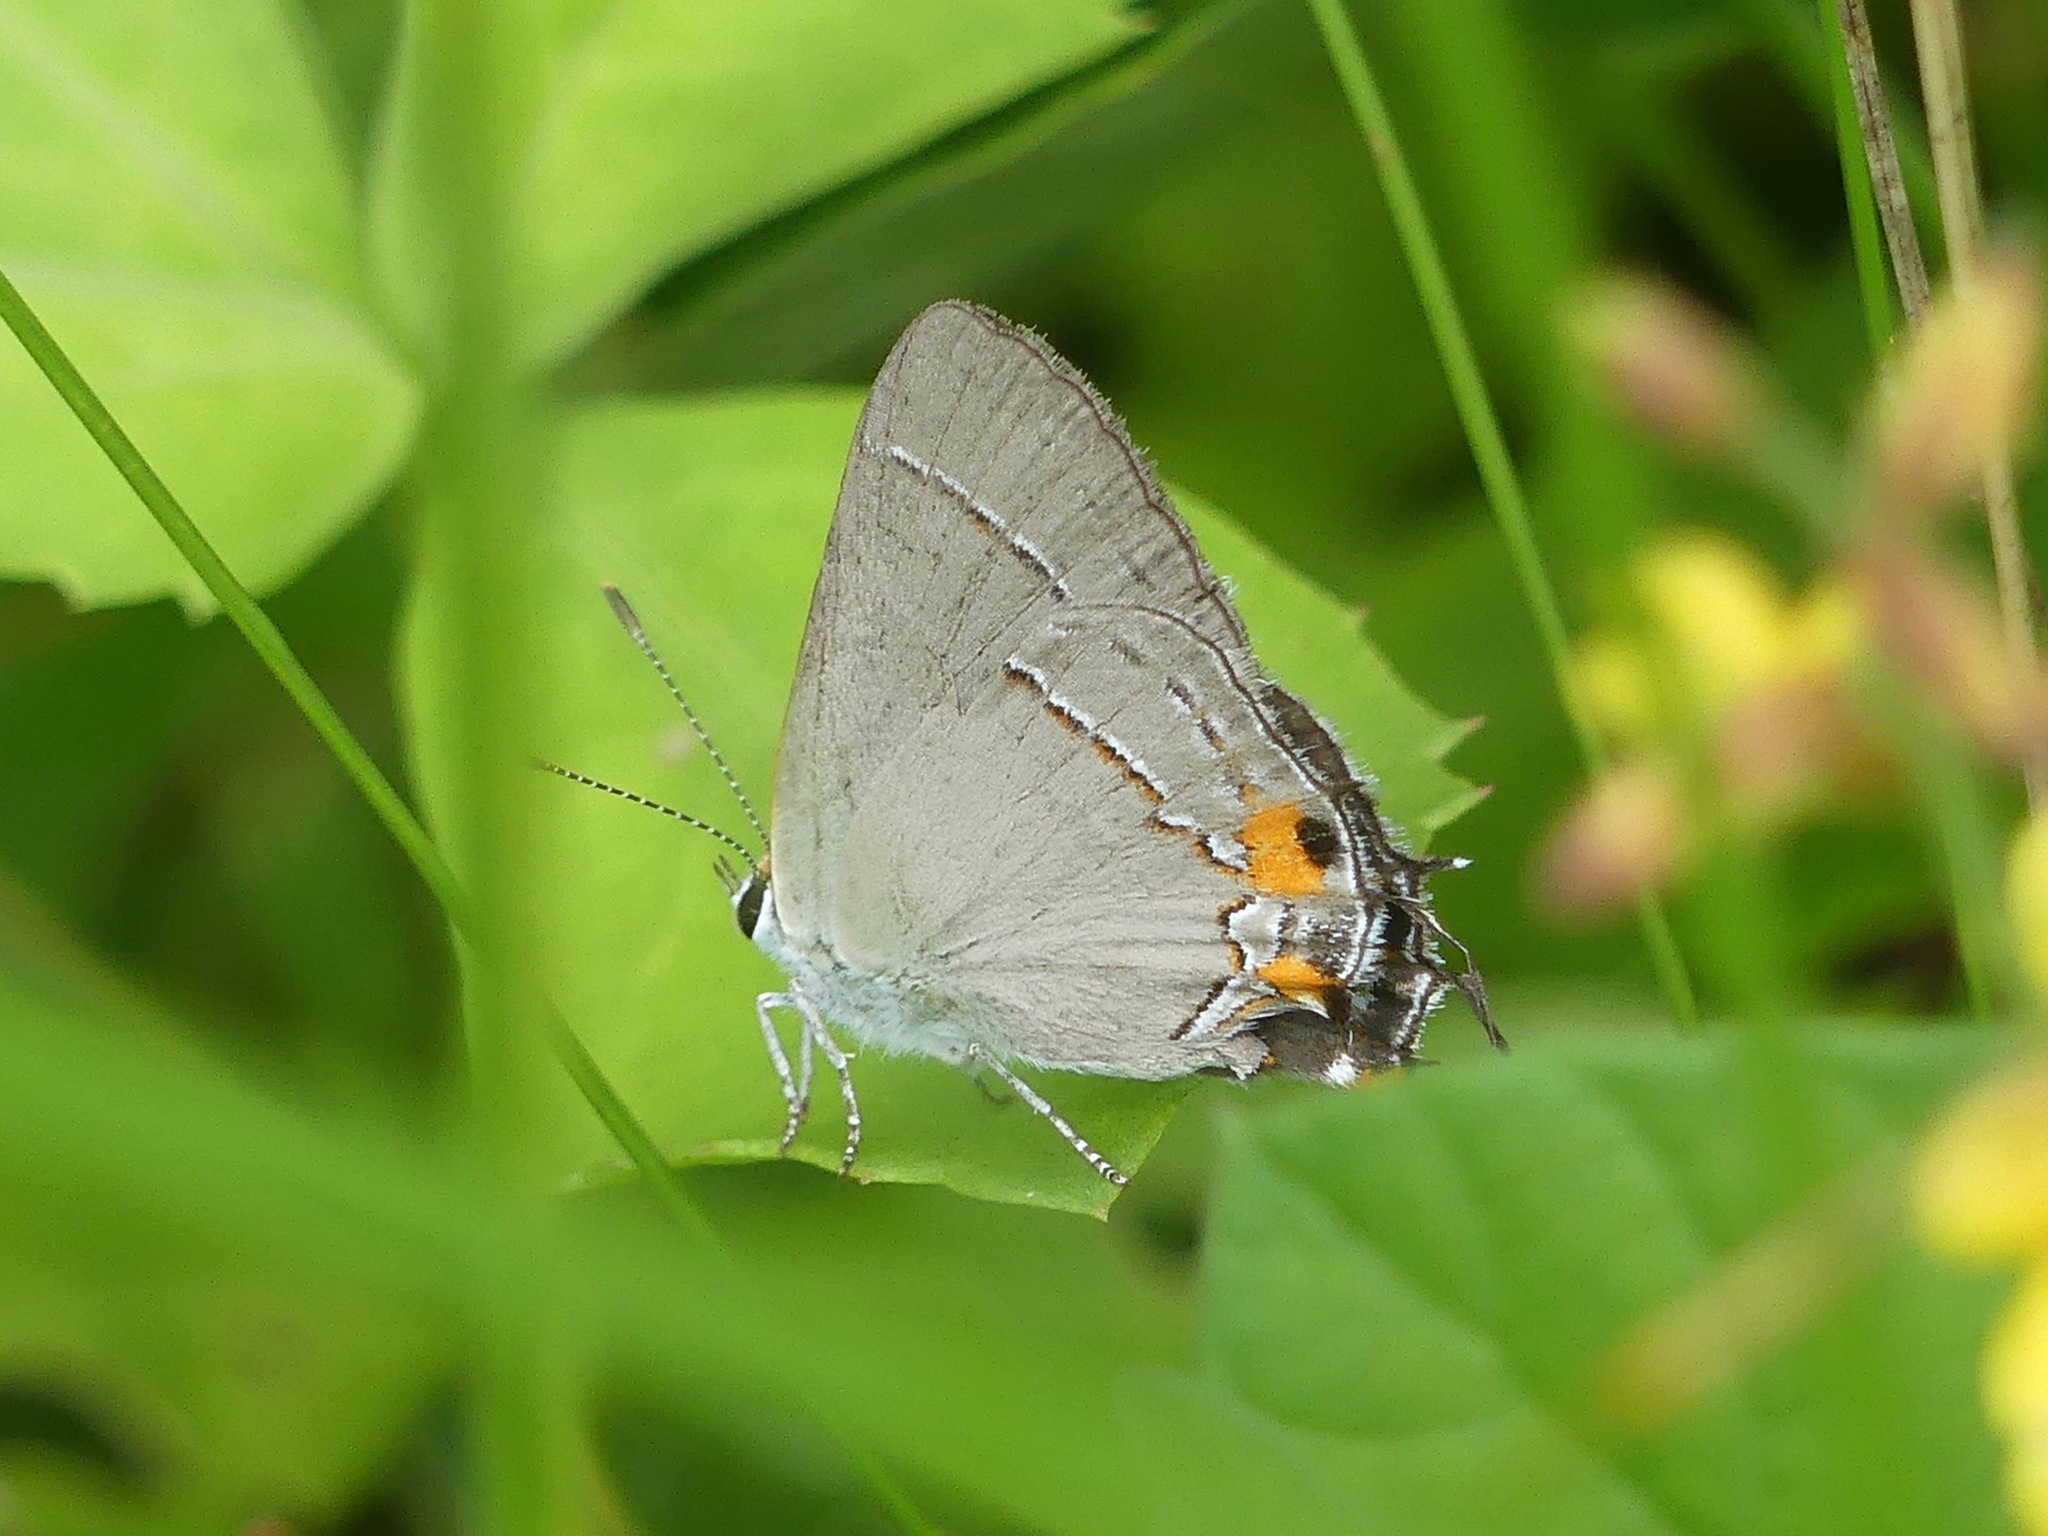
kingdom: Animalia
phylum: Arthropoda
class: Insecta
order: Lepidoptera
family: Lycaenidae
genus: Strymon
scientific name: Strymon melinus
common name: Gray hairstreak
